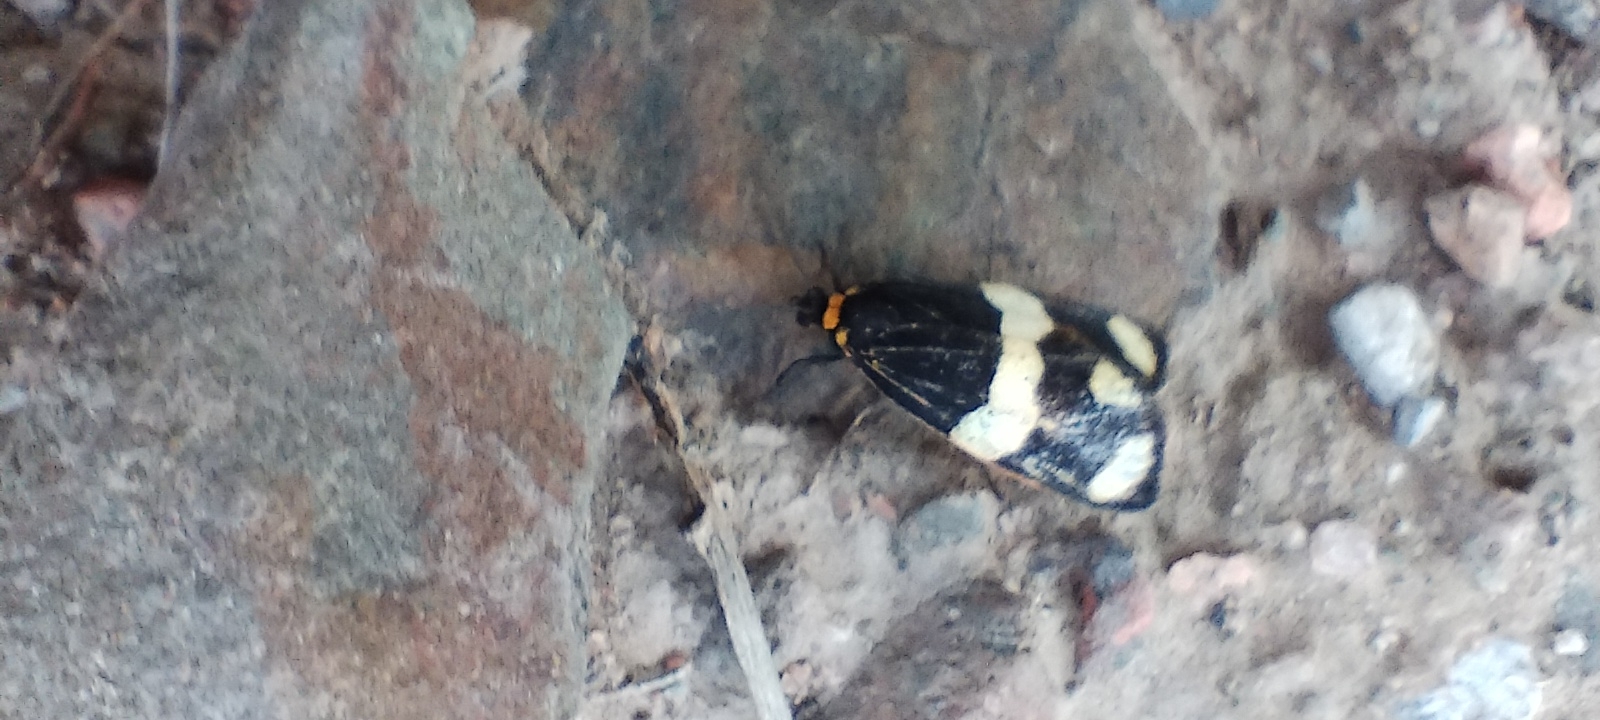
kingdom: Animalia
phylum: Arthropoda
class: Insecta
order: Lepidoptera
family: Erebidae
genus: Eudesmia
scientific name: Eudesmia
